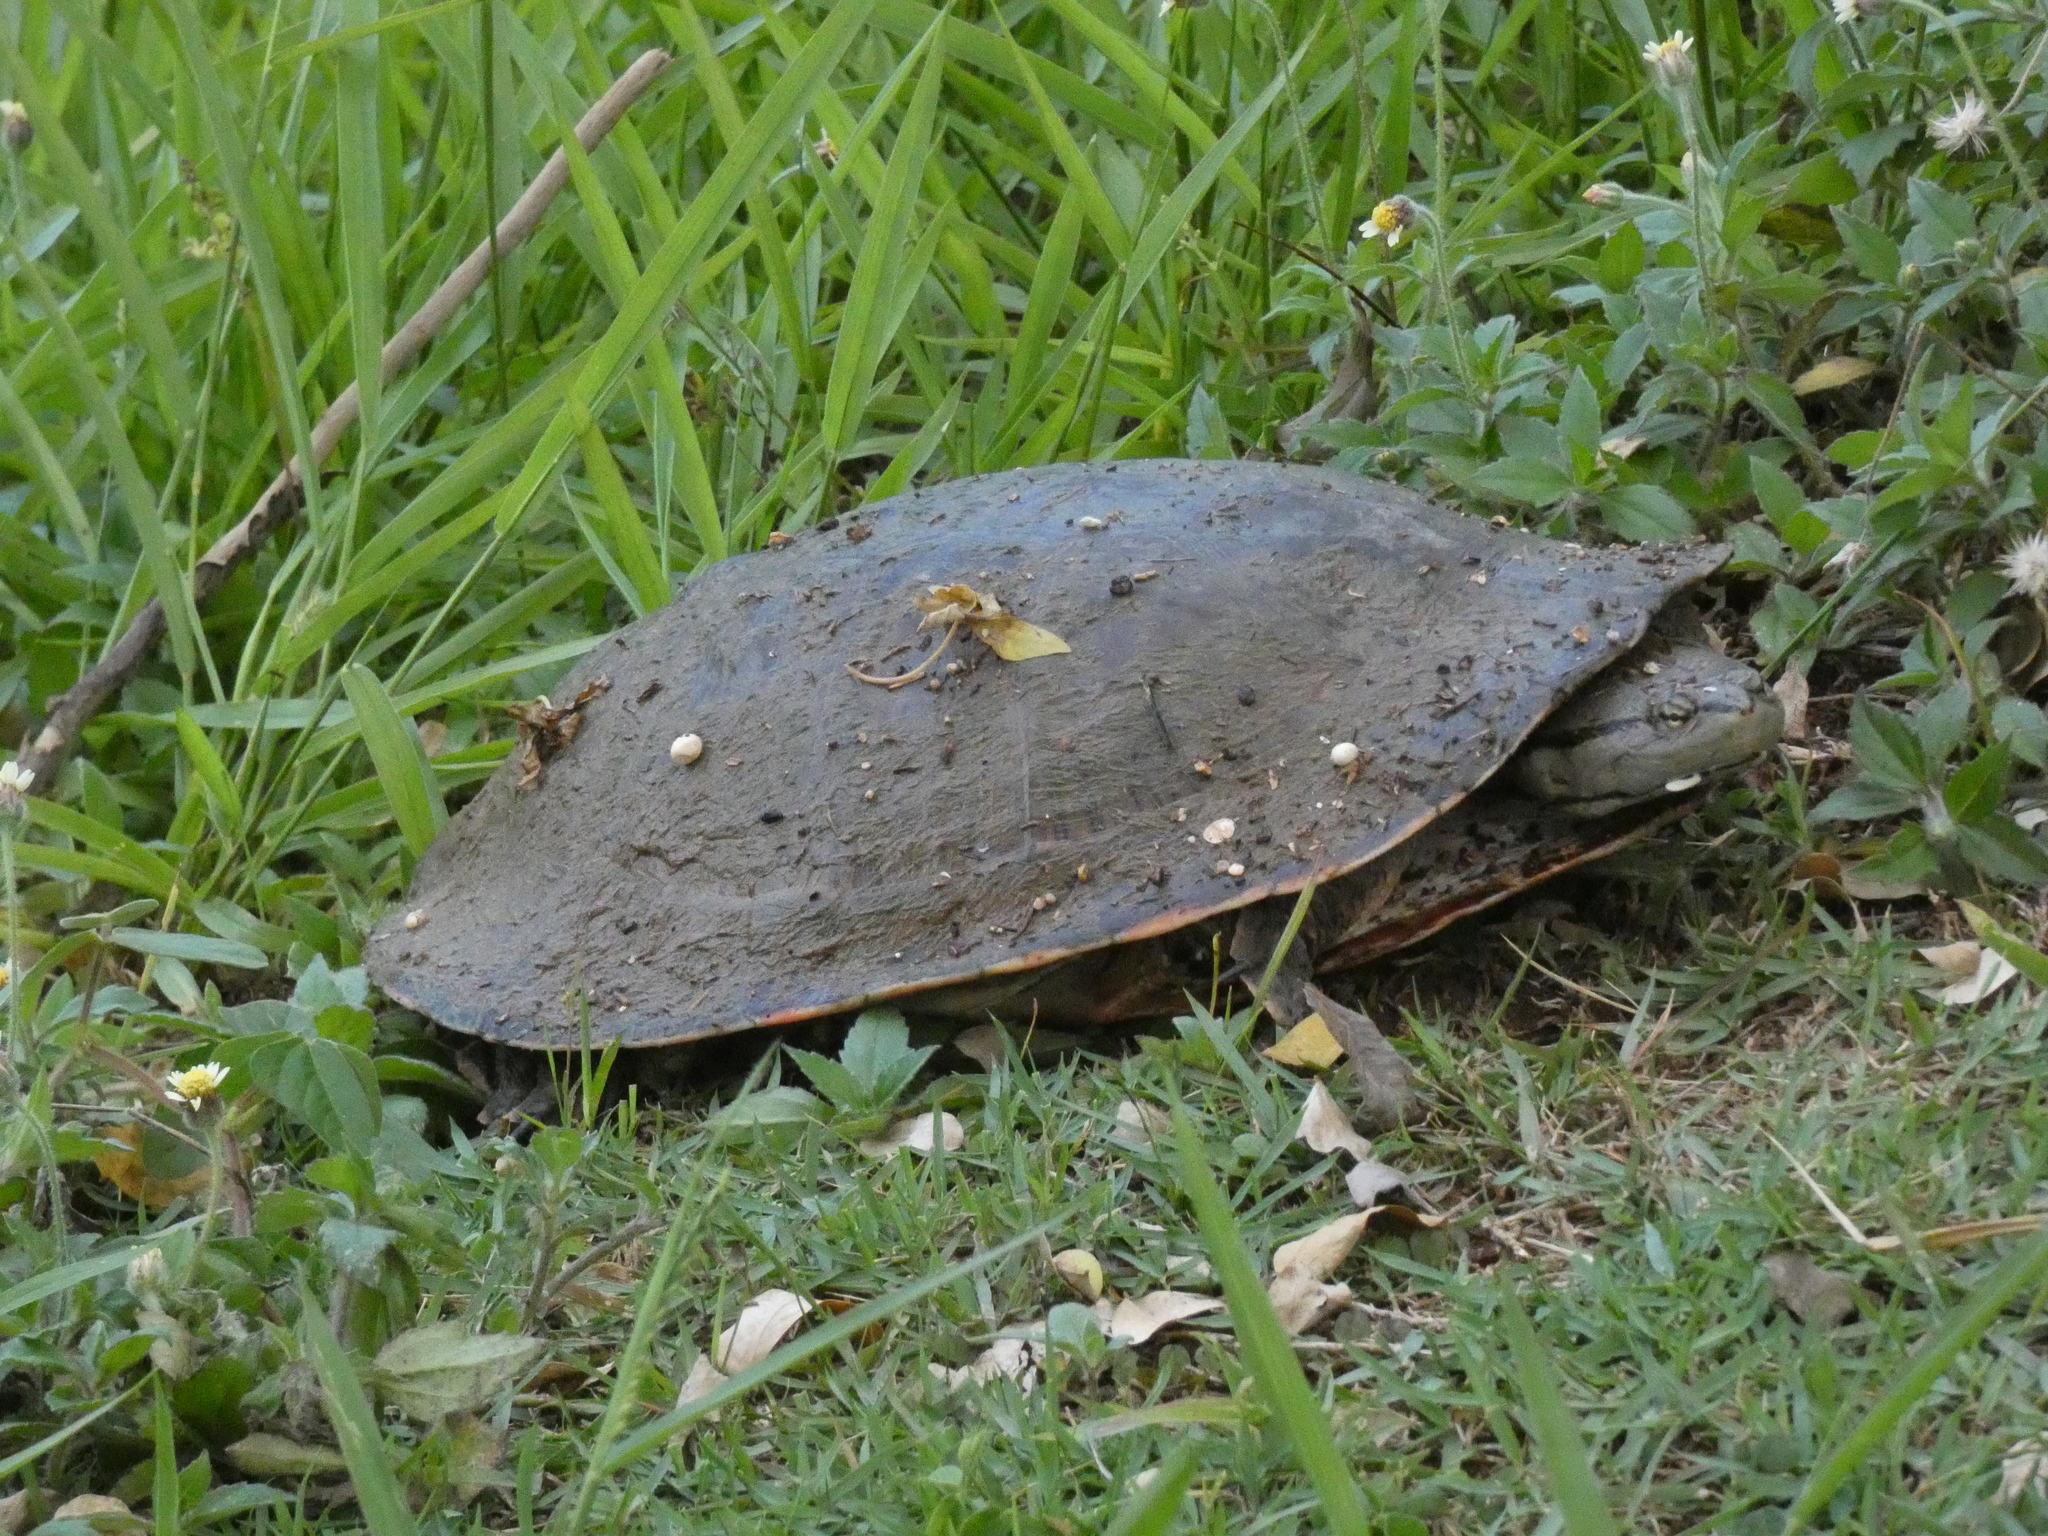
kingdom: Animalia
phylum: Chordata
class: Testudines
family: Chelidae
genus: Phrynops
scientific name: Phrynops geoffroanus
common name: Side-necked turtle of geoffroy
